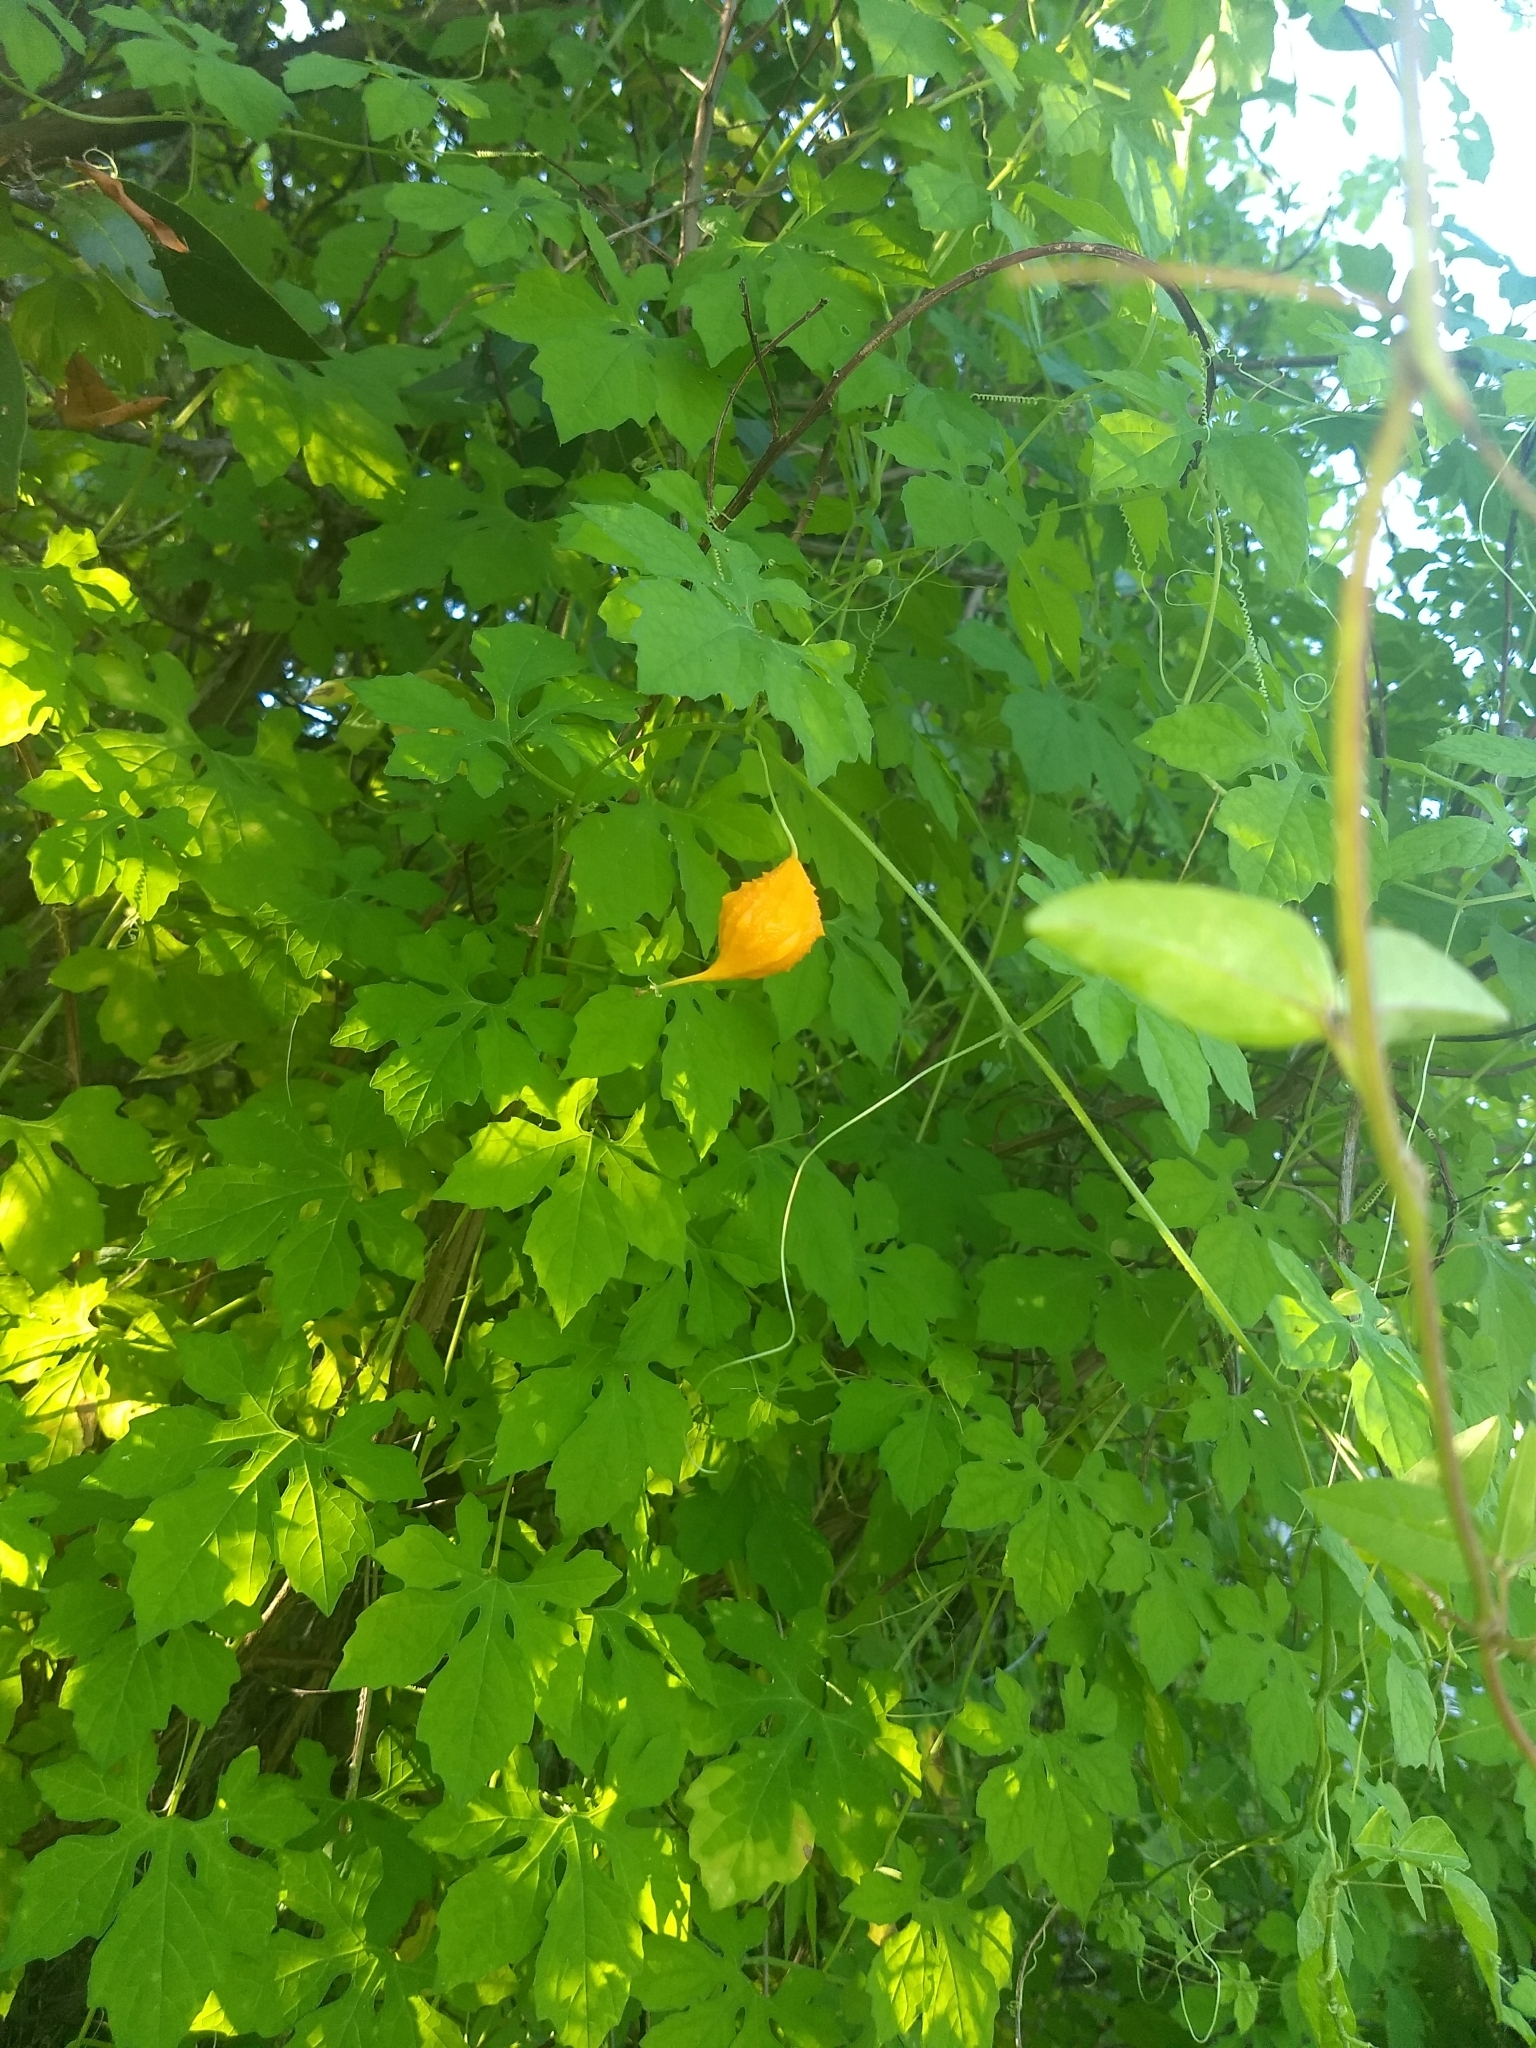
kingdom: Plantae
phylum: Tracheophyta
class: Magnoliopsida
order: Cucurbitales
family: Cucurbitaceae
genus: Momordica
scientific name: Momordica charantia
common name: Balsampear
